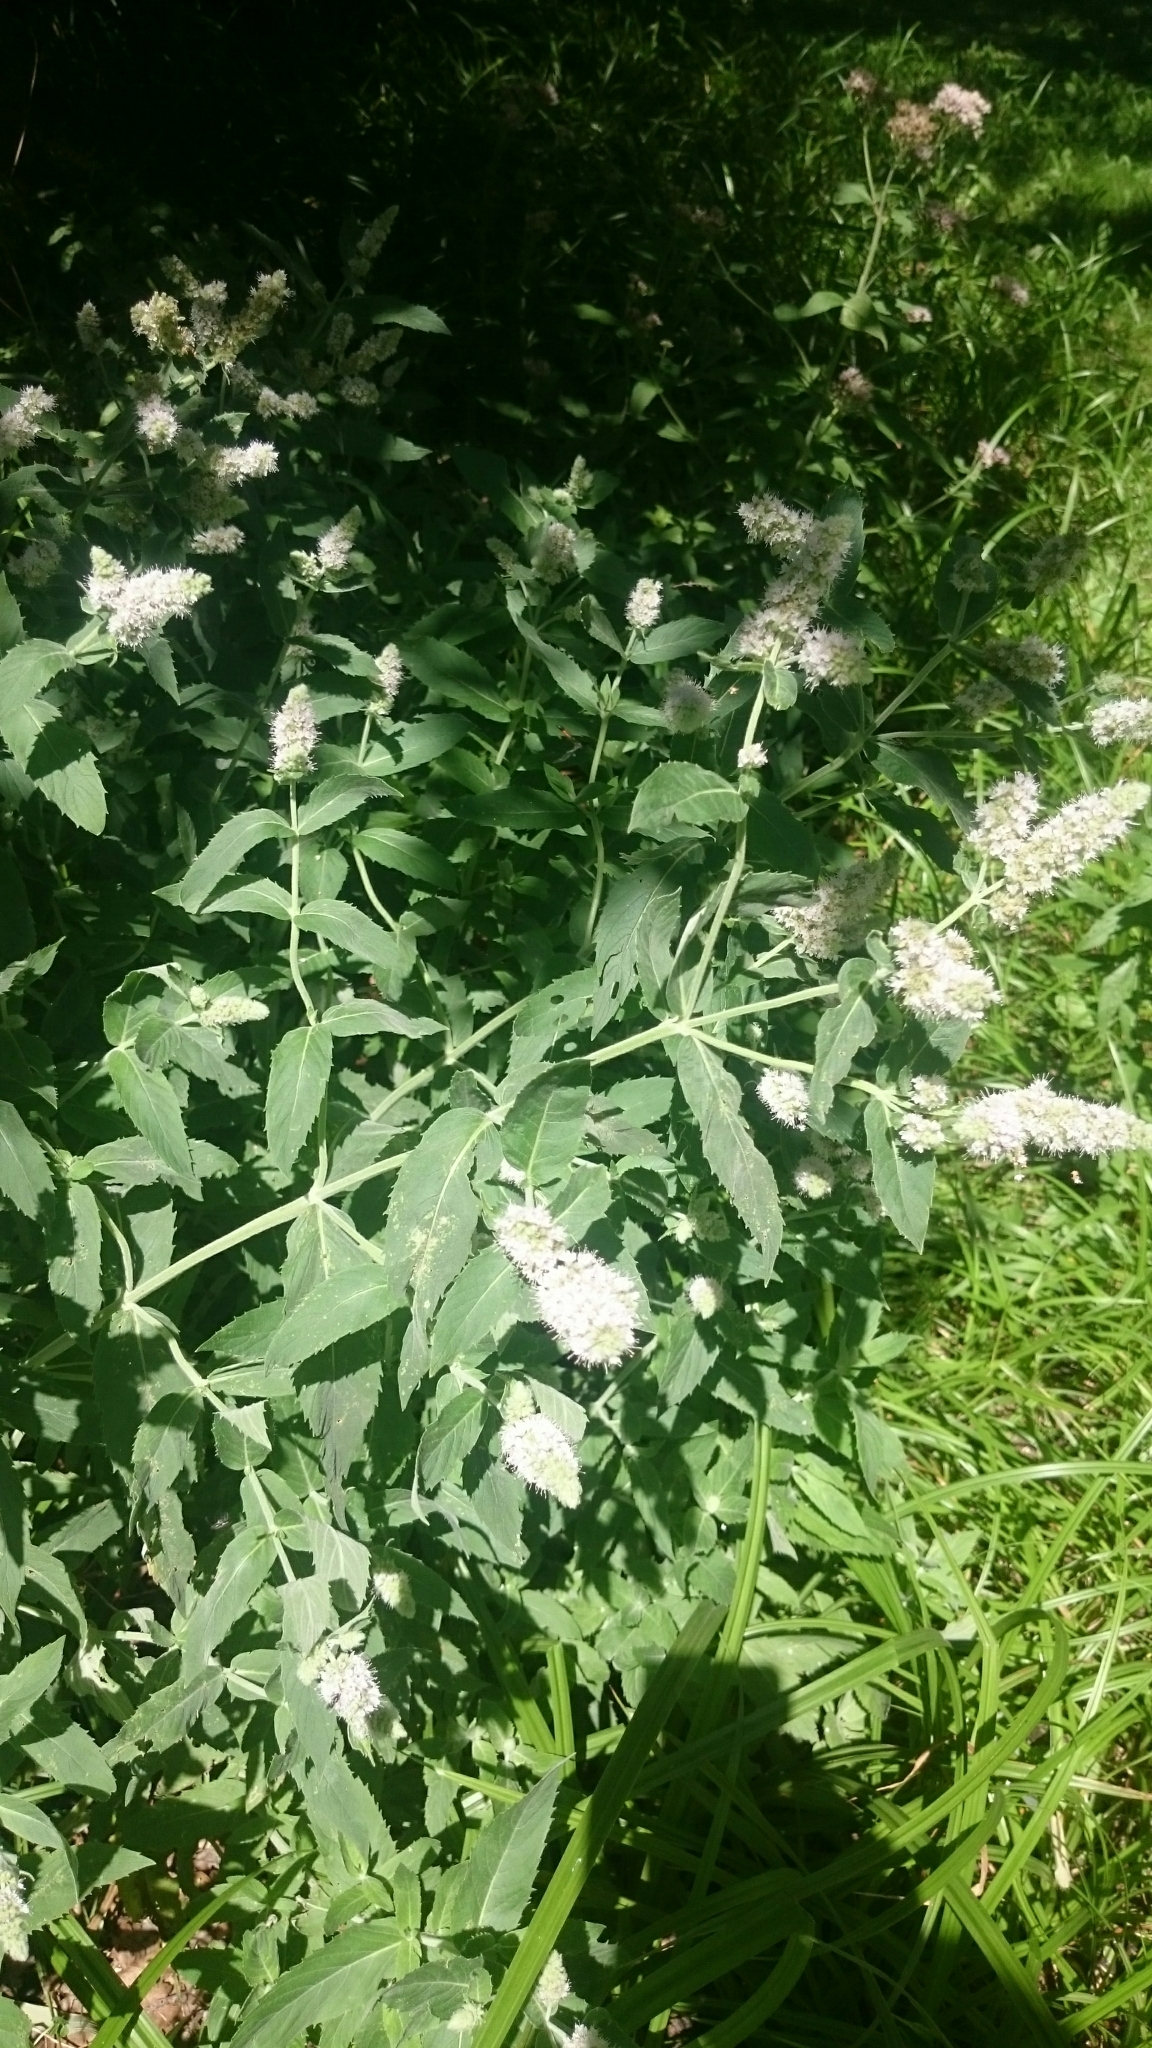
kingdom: Plantae
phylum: Tracheophyta
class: Magnoliopsida
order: Lamiales
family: Lamiaceae
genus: Mentha
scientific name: Mentha longifolia
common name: Horse mint
